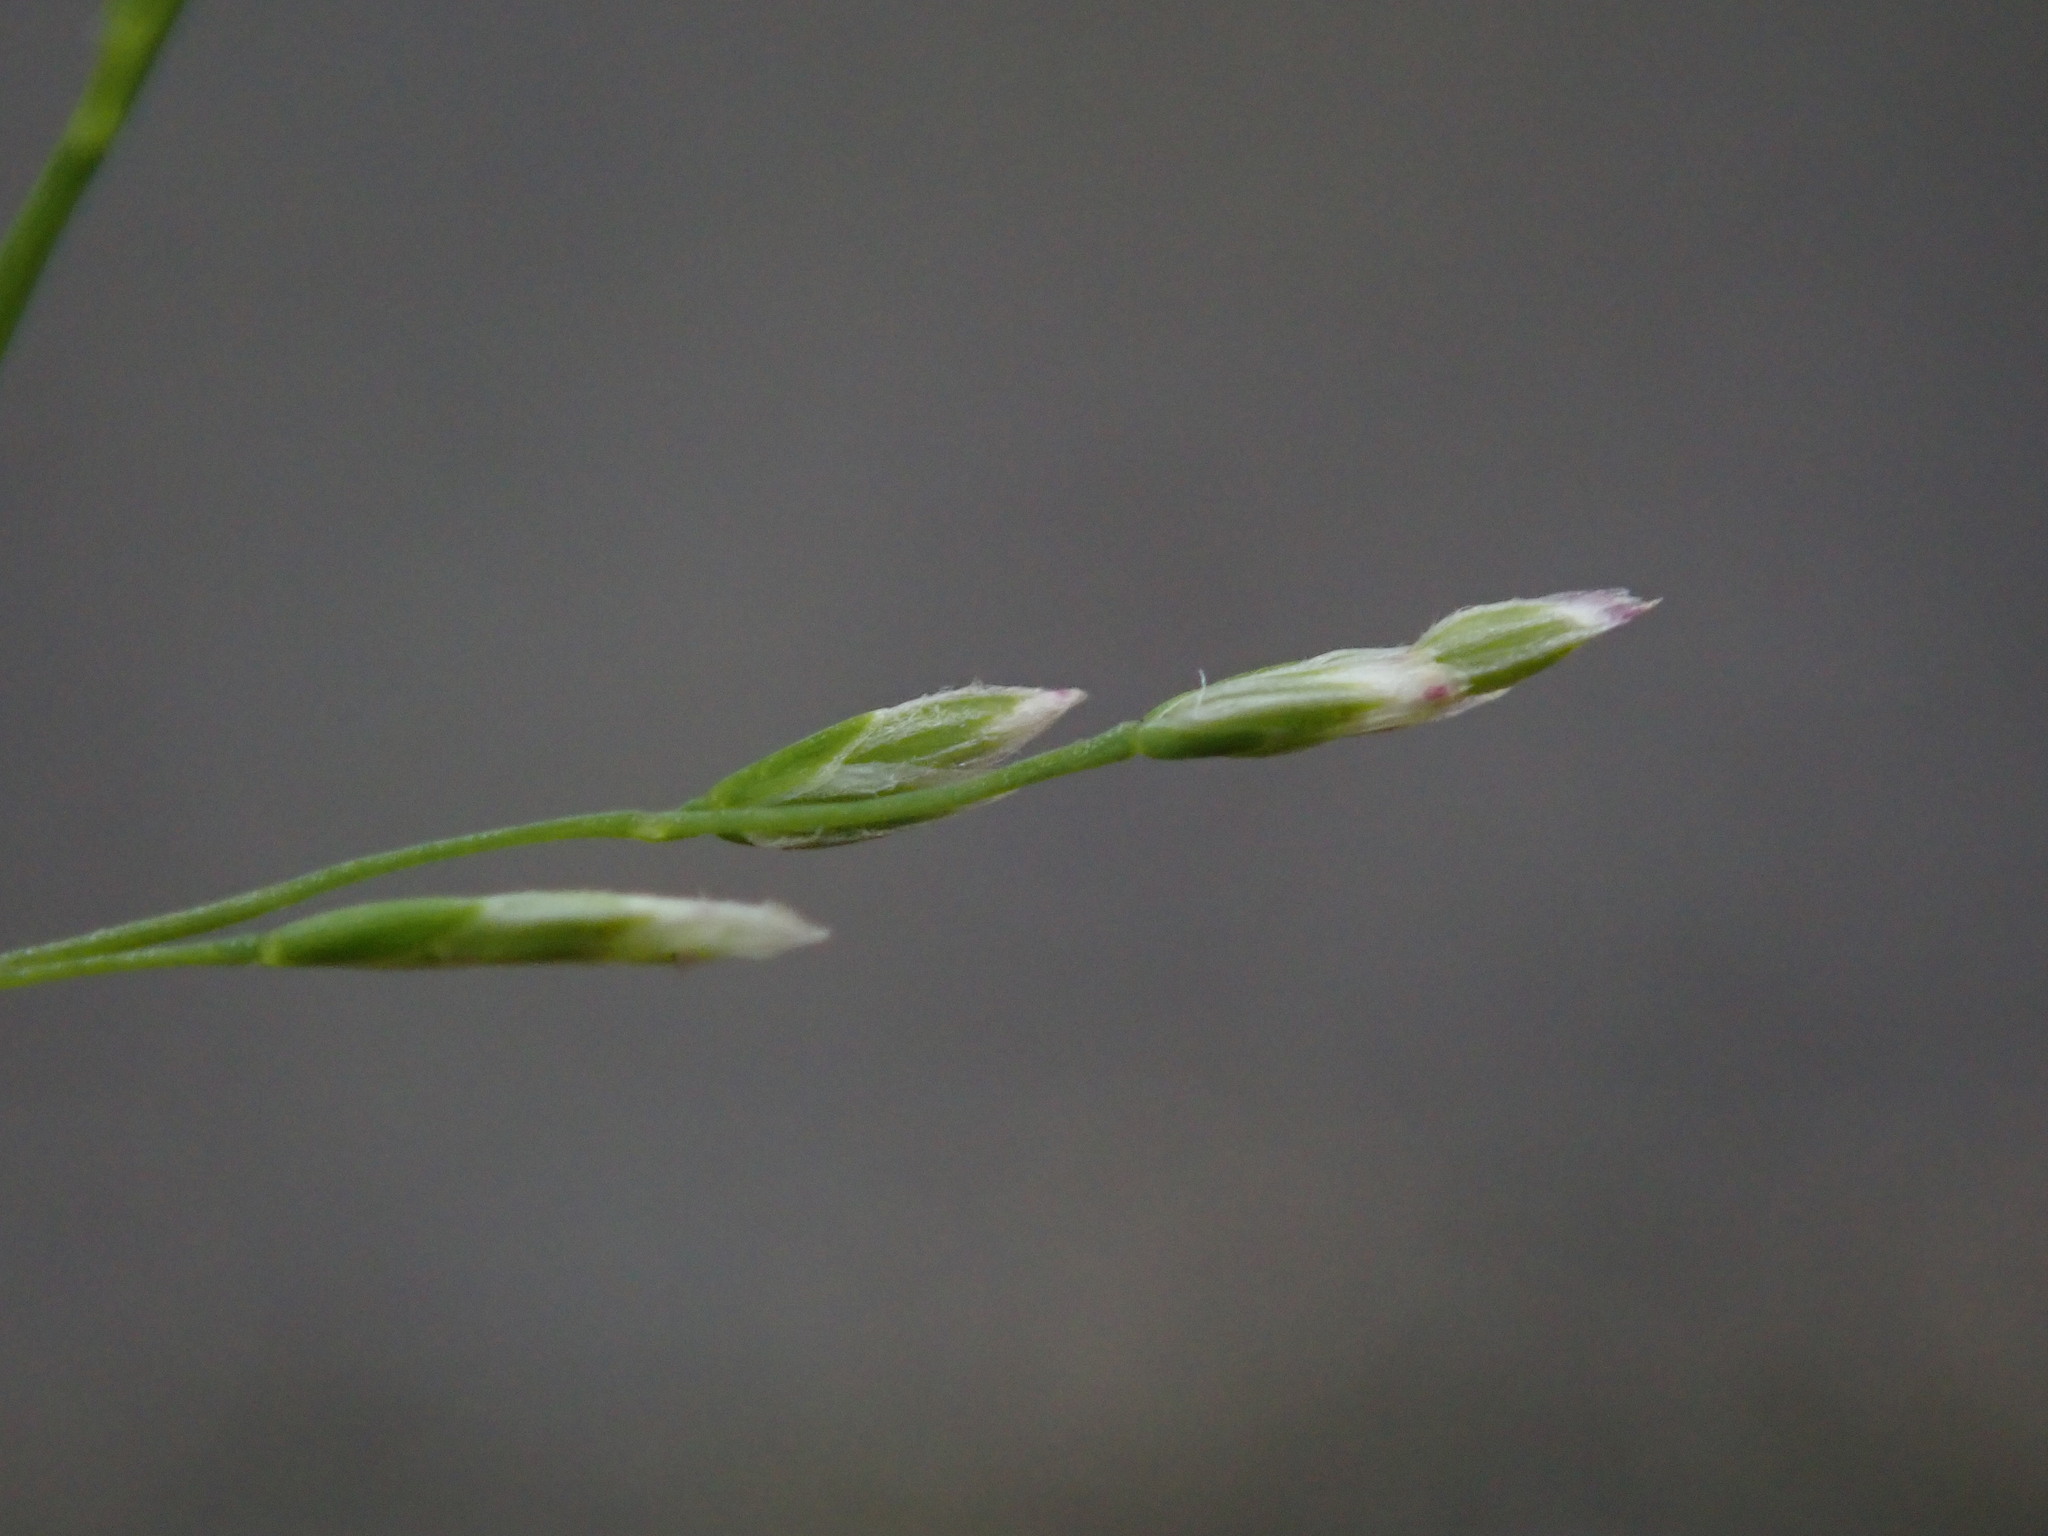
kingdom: Plantae
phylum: Tracheophyta
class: Liliopsida
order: Poales
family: Poaceae
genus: Poa
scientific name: Poa infirma
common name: Weak bluegrass
